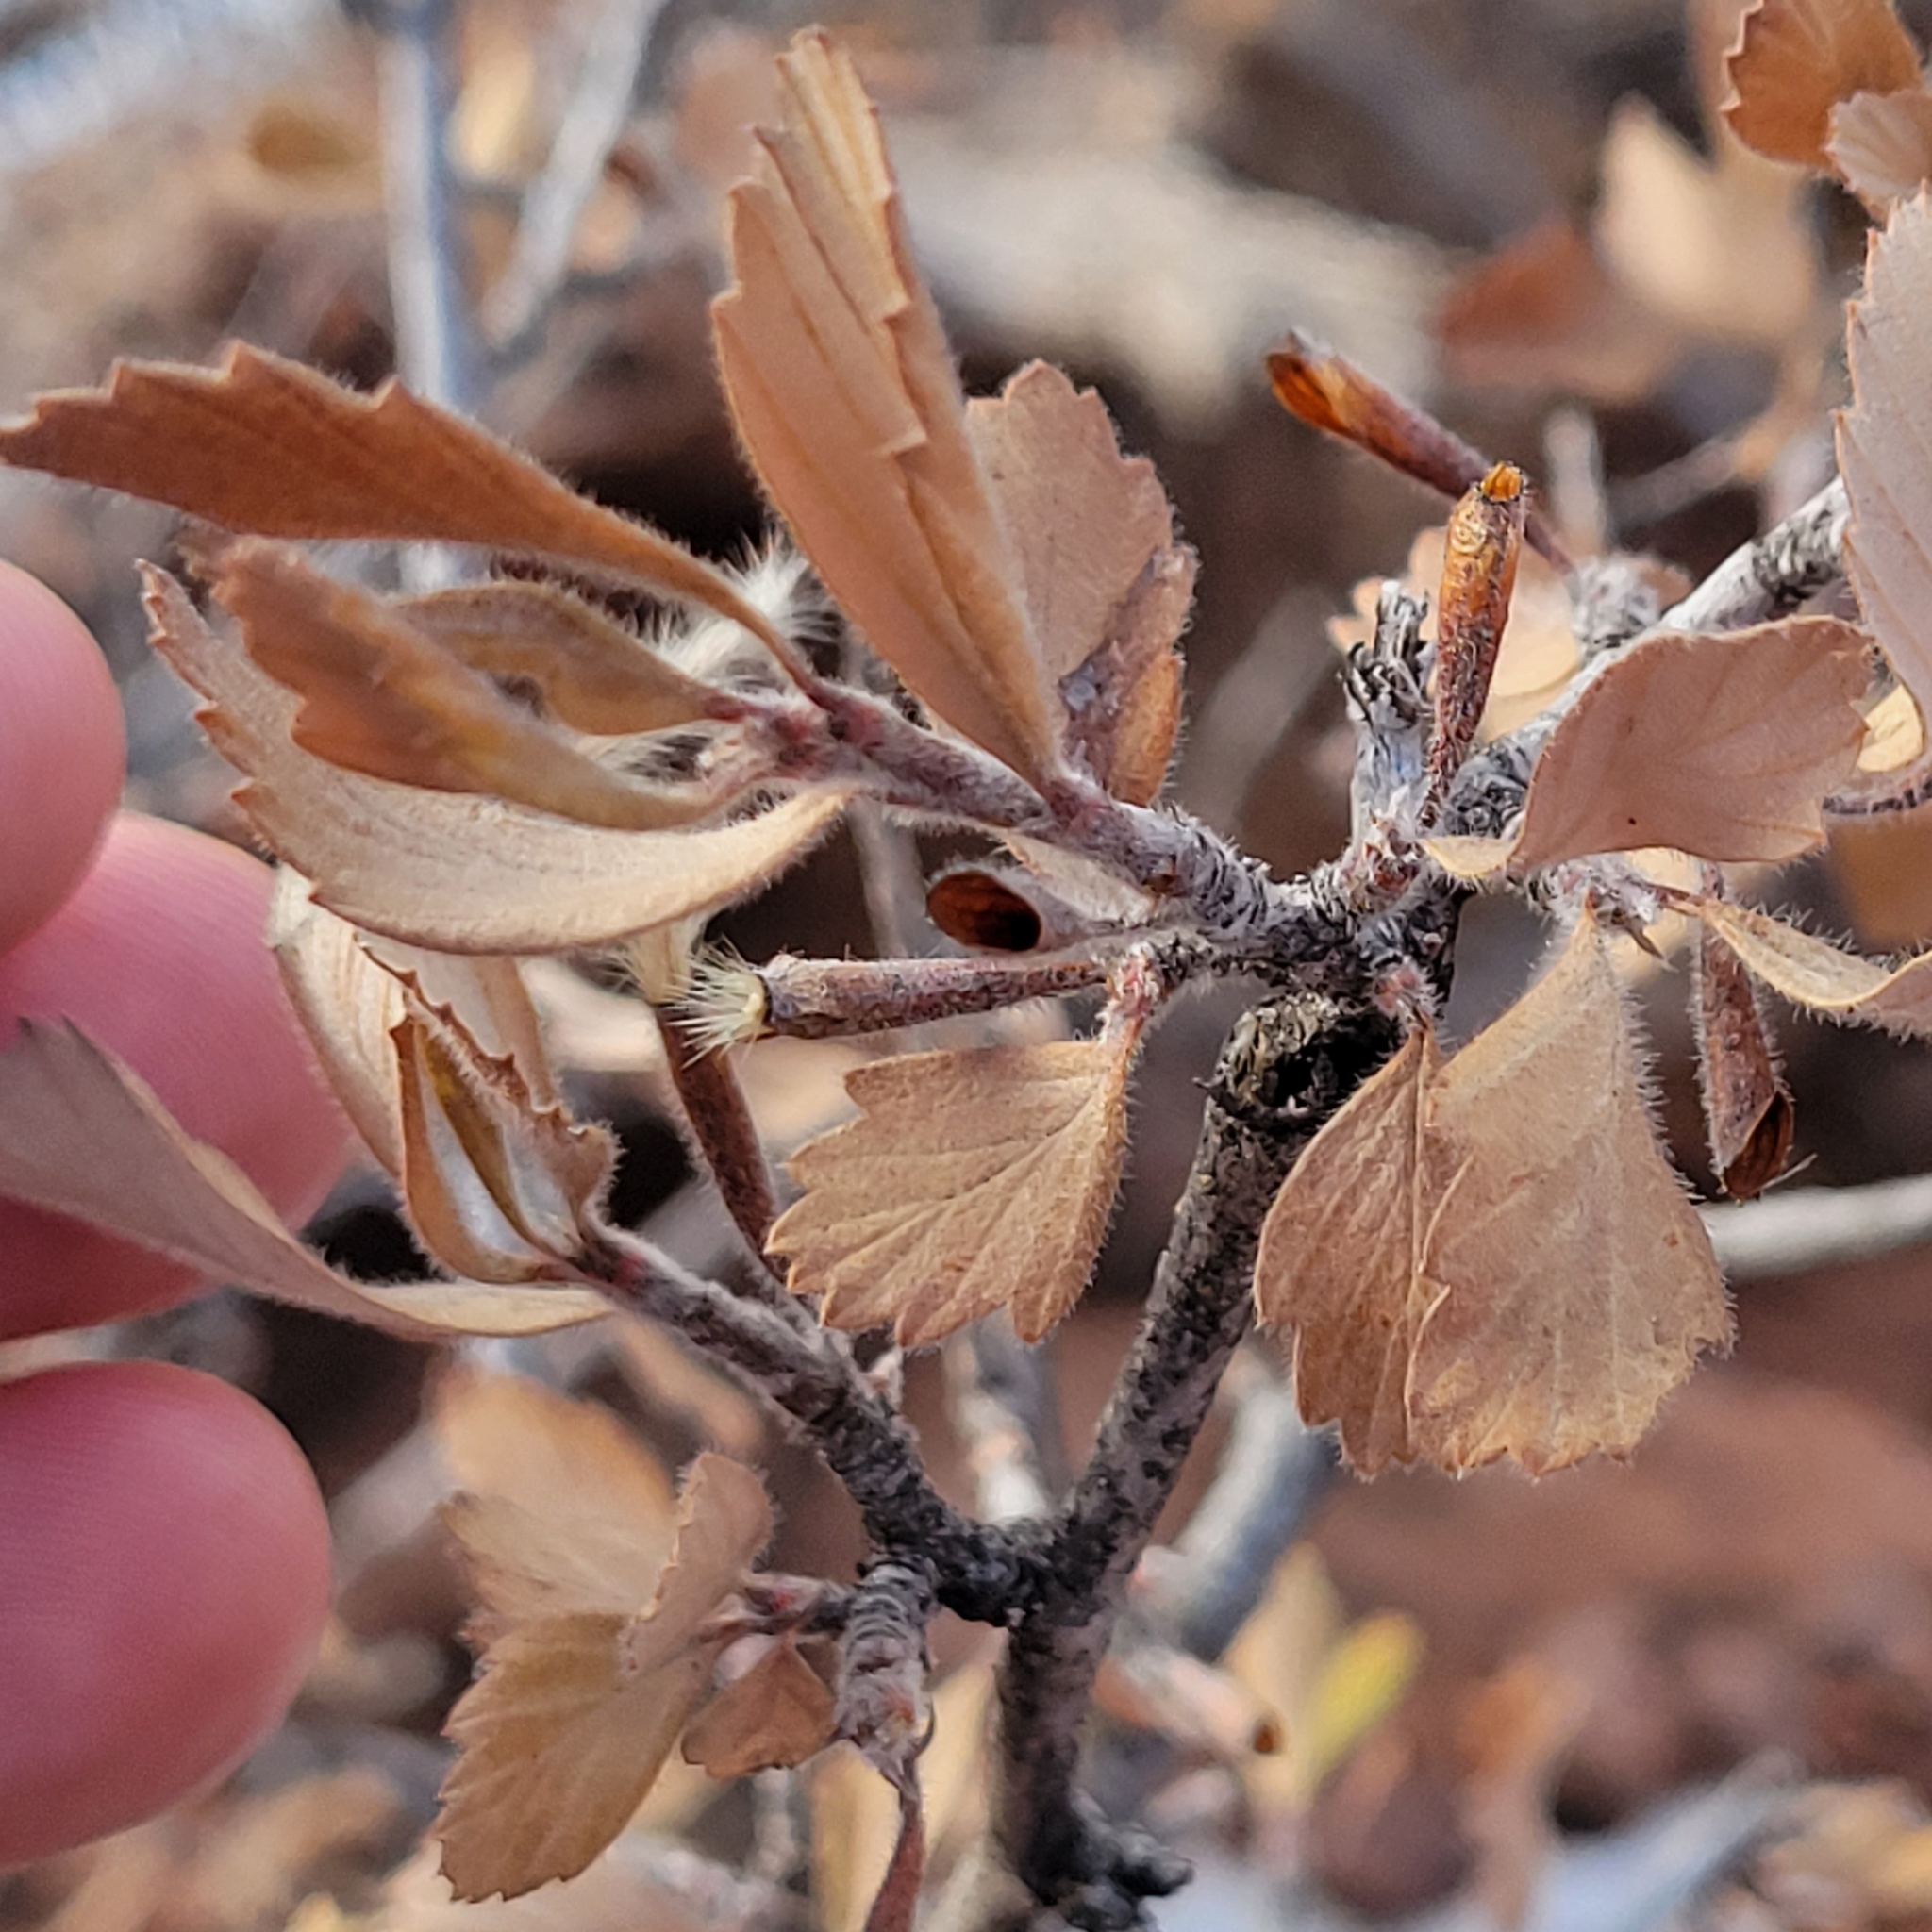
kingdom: Plantae
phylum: Tracheophyta
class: Magnoliopsida
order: Rosales
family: Rosaceae
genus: Cercocarpus
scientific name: Cercocarpus montanus
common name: Alder-leaf cercocarpus
